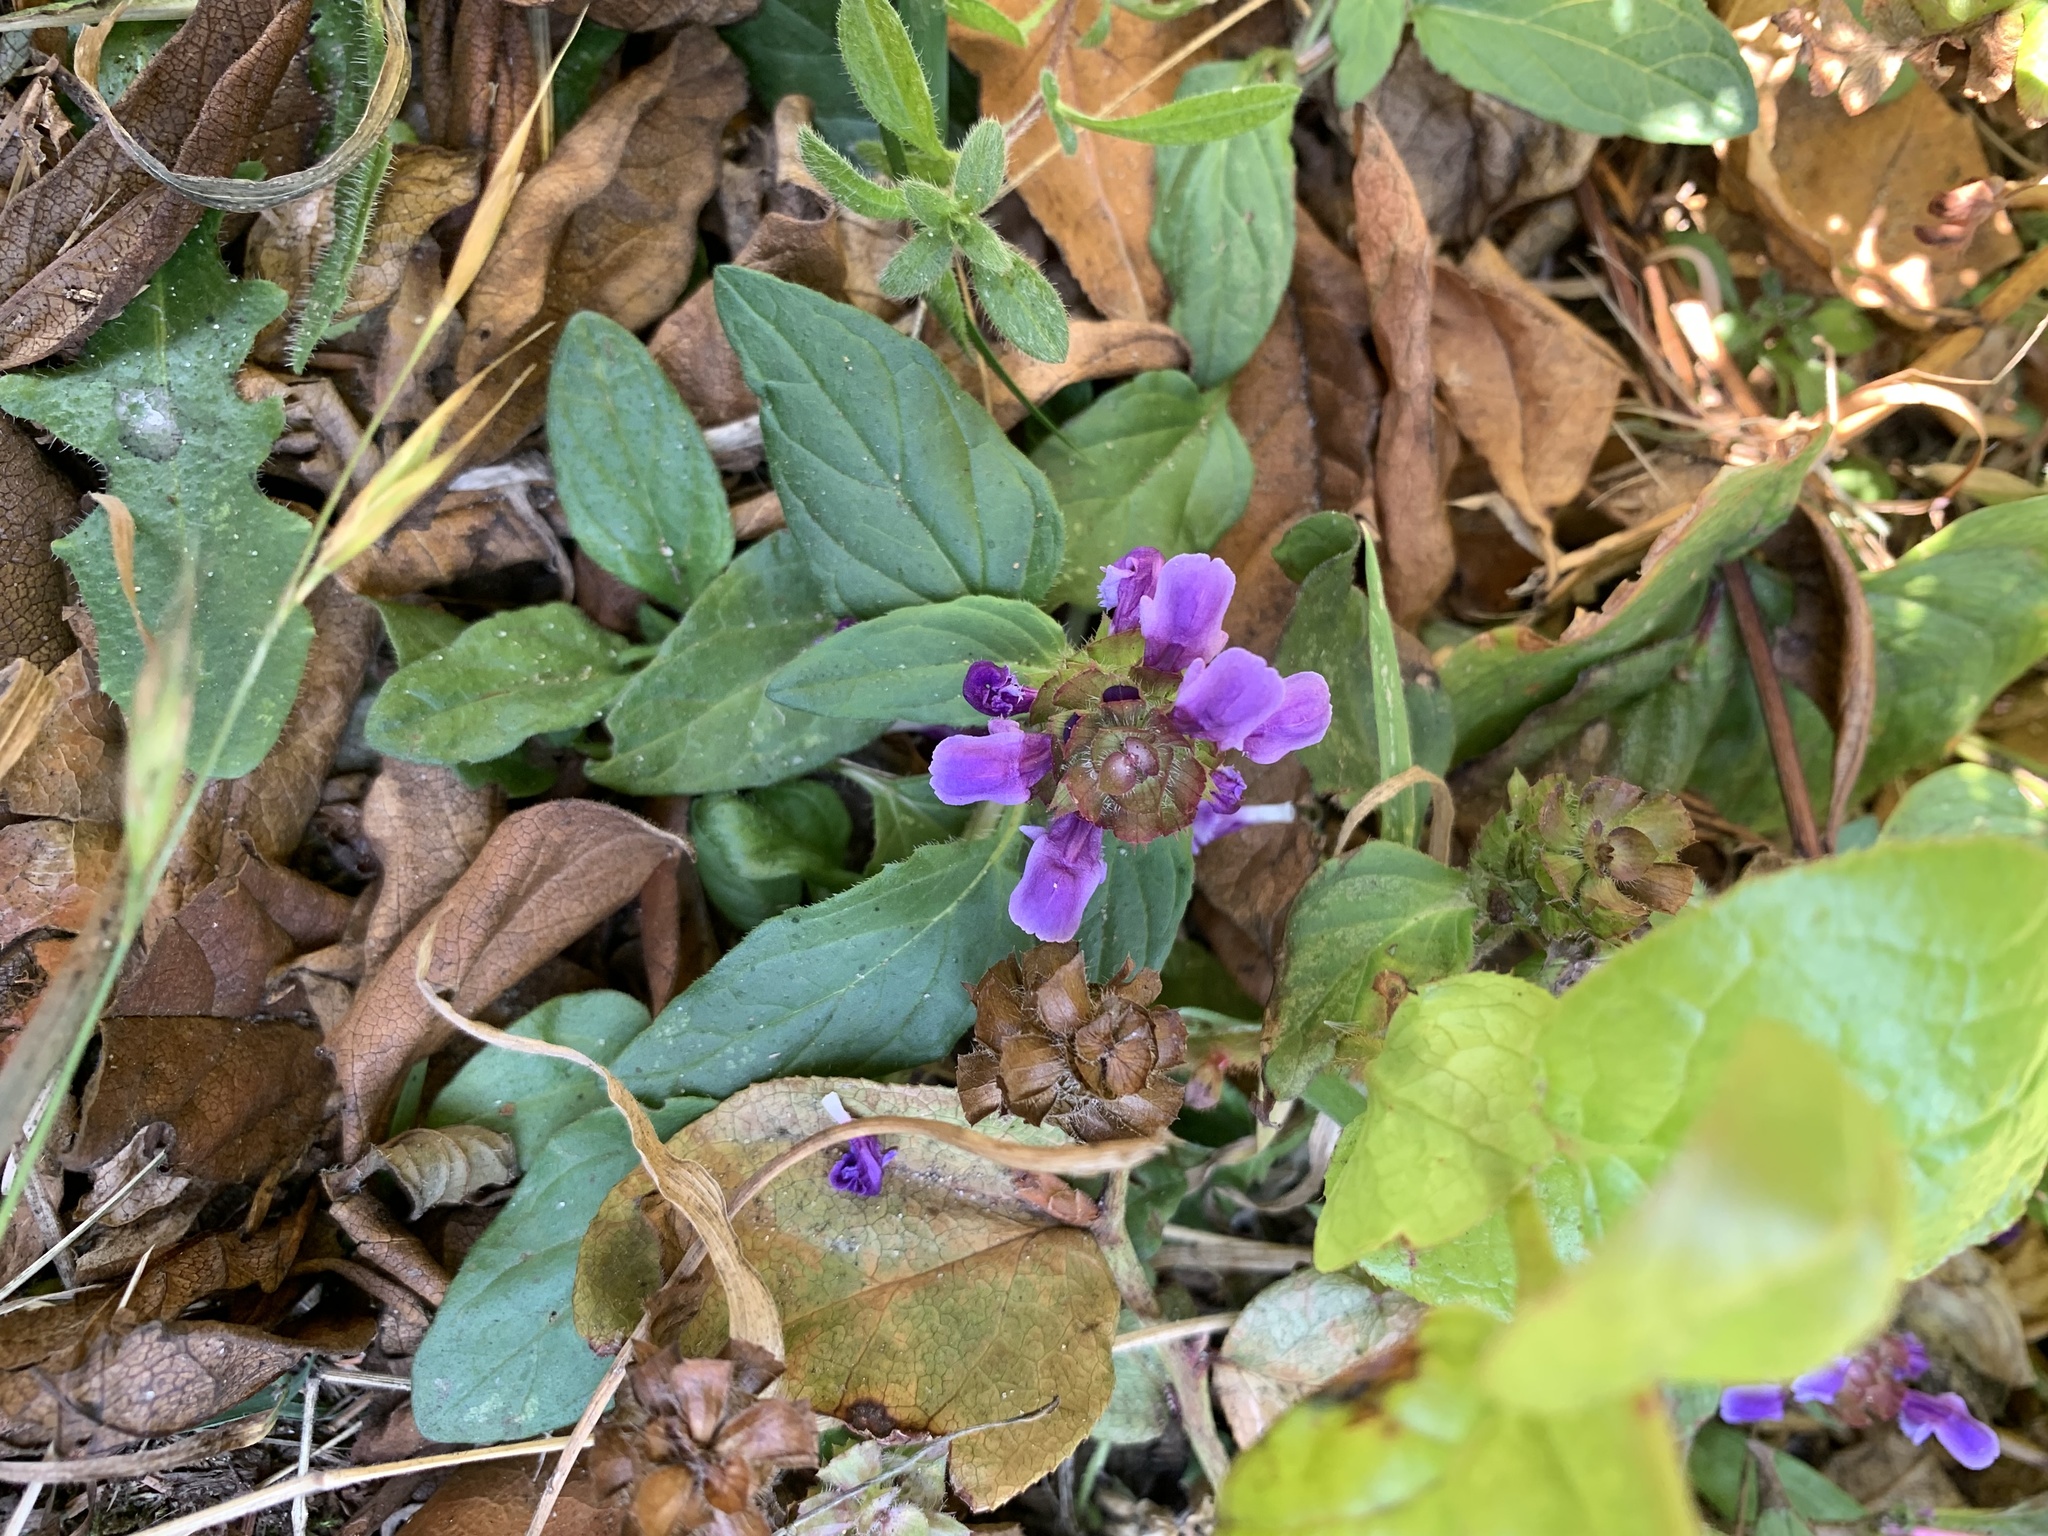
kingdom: Plantae
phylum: Tracheophyta
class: Magnoliopsida
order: Lamiales
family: Lamiaceae
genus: Prunella
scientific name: Prunella vulgaris
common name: Heal-all
